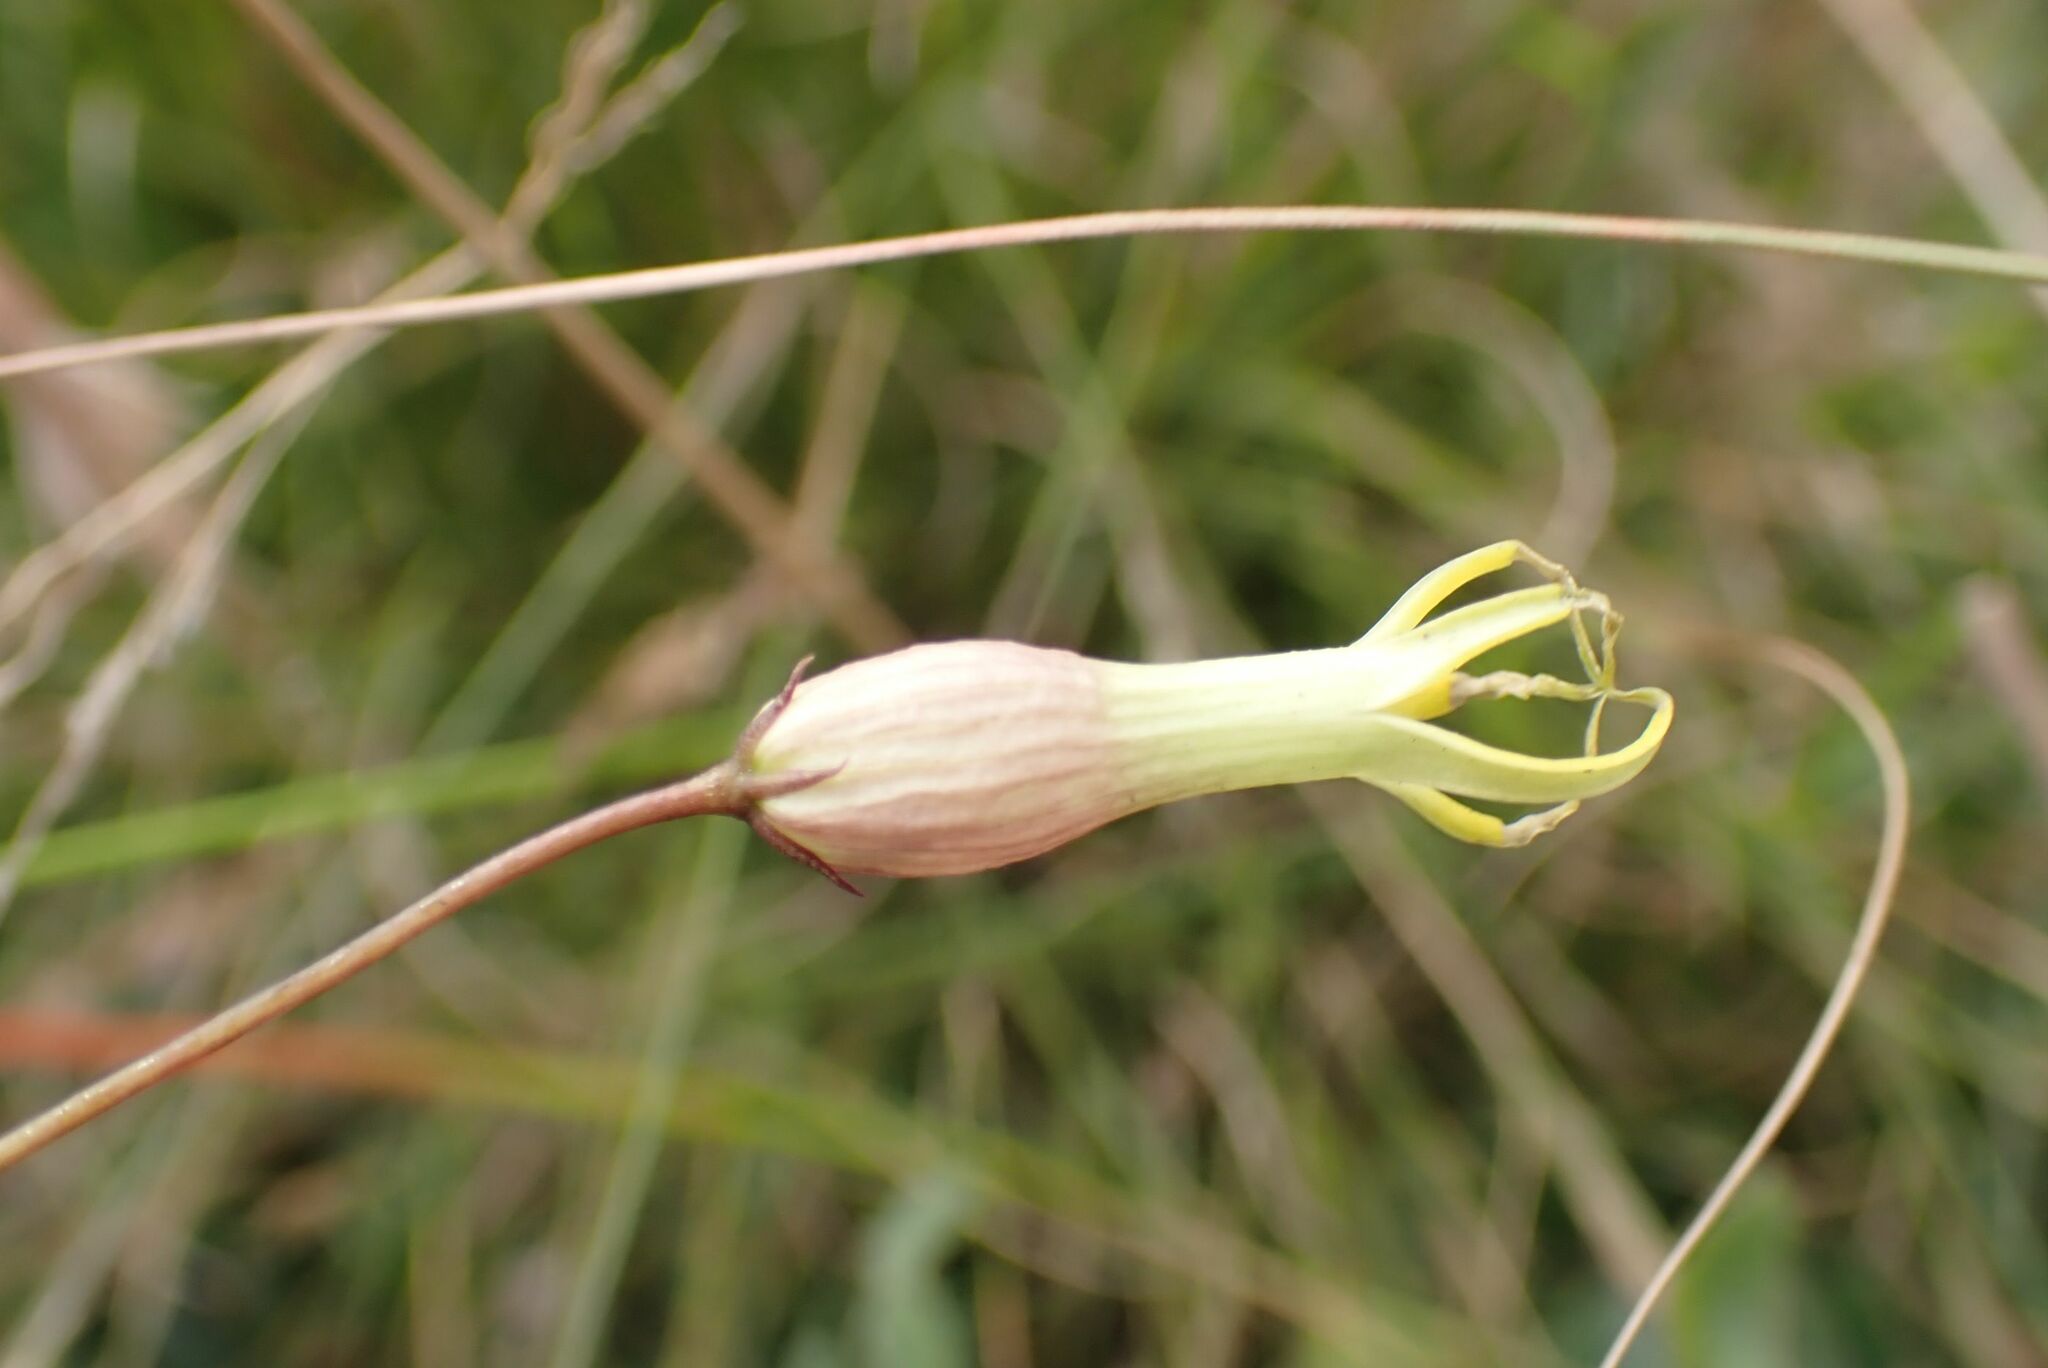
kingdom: Plantae
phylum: Tracheophyta
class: Magnoliopsida
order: Gentianales
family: Apocynaceae
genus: Riocreuxia
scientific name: Riocreuxia polyantha
